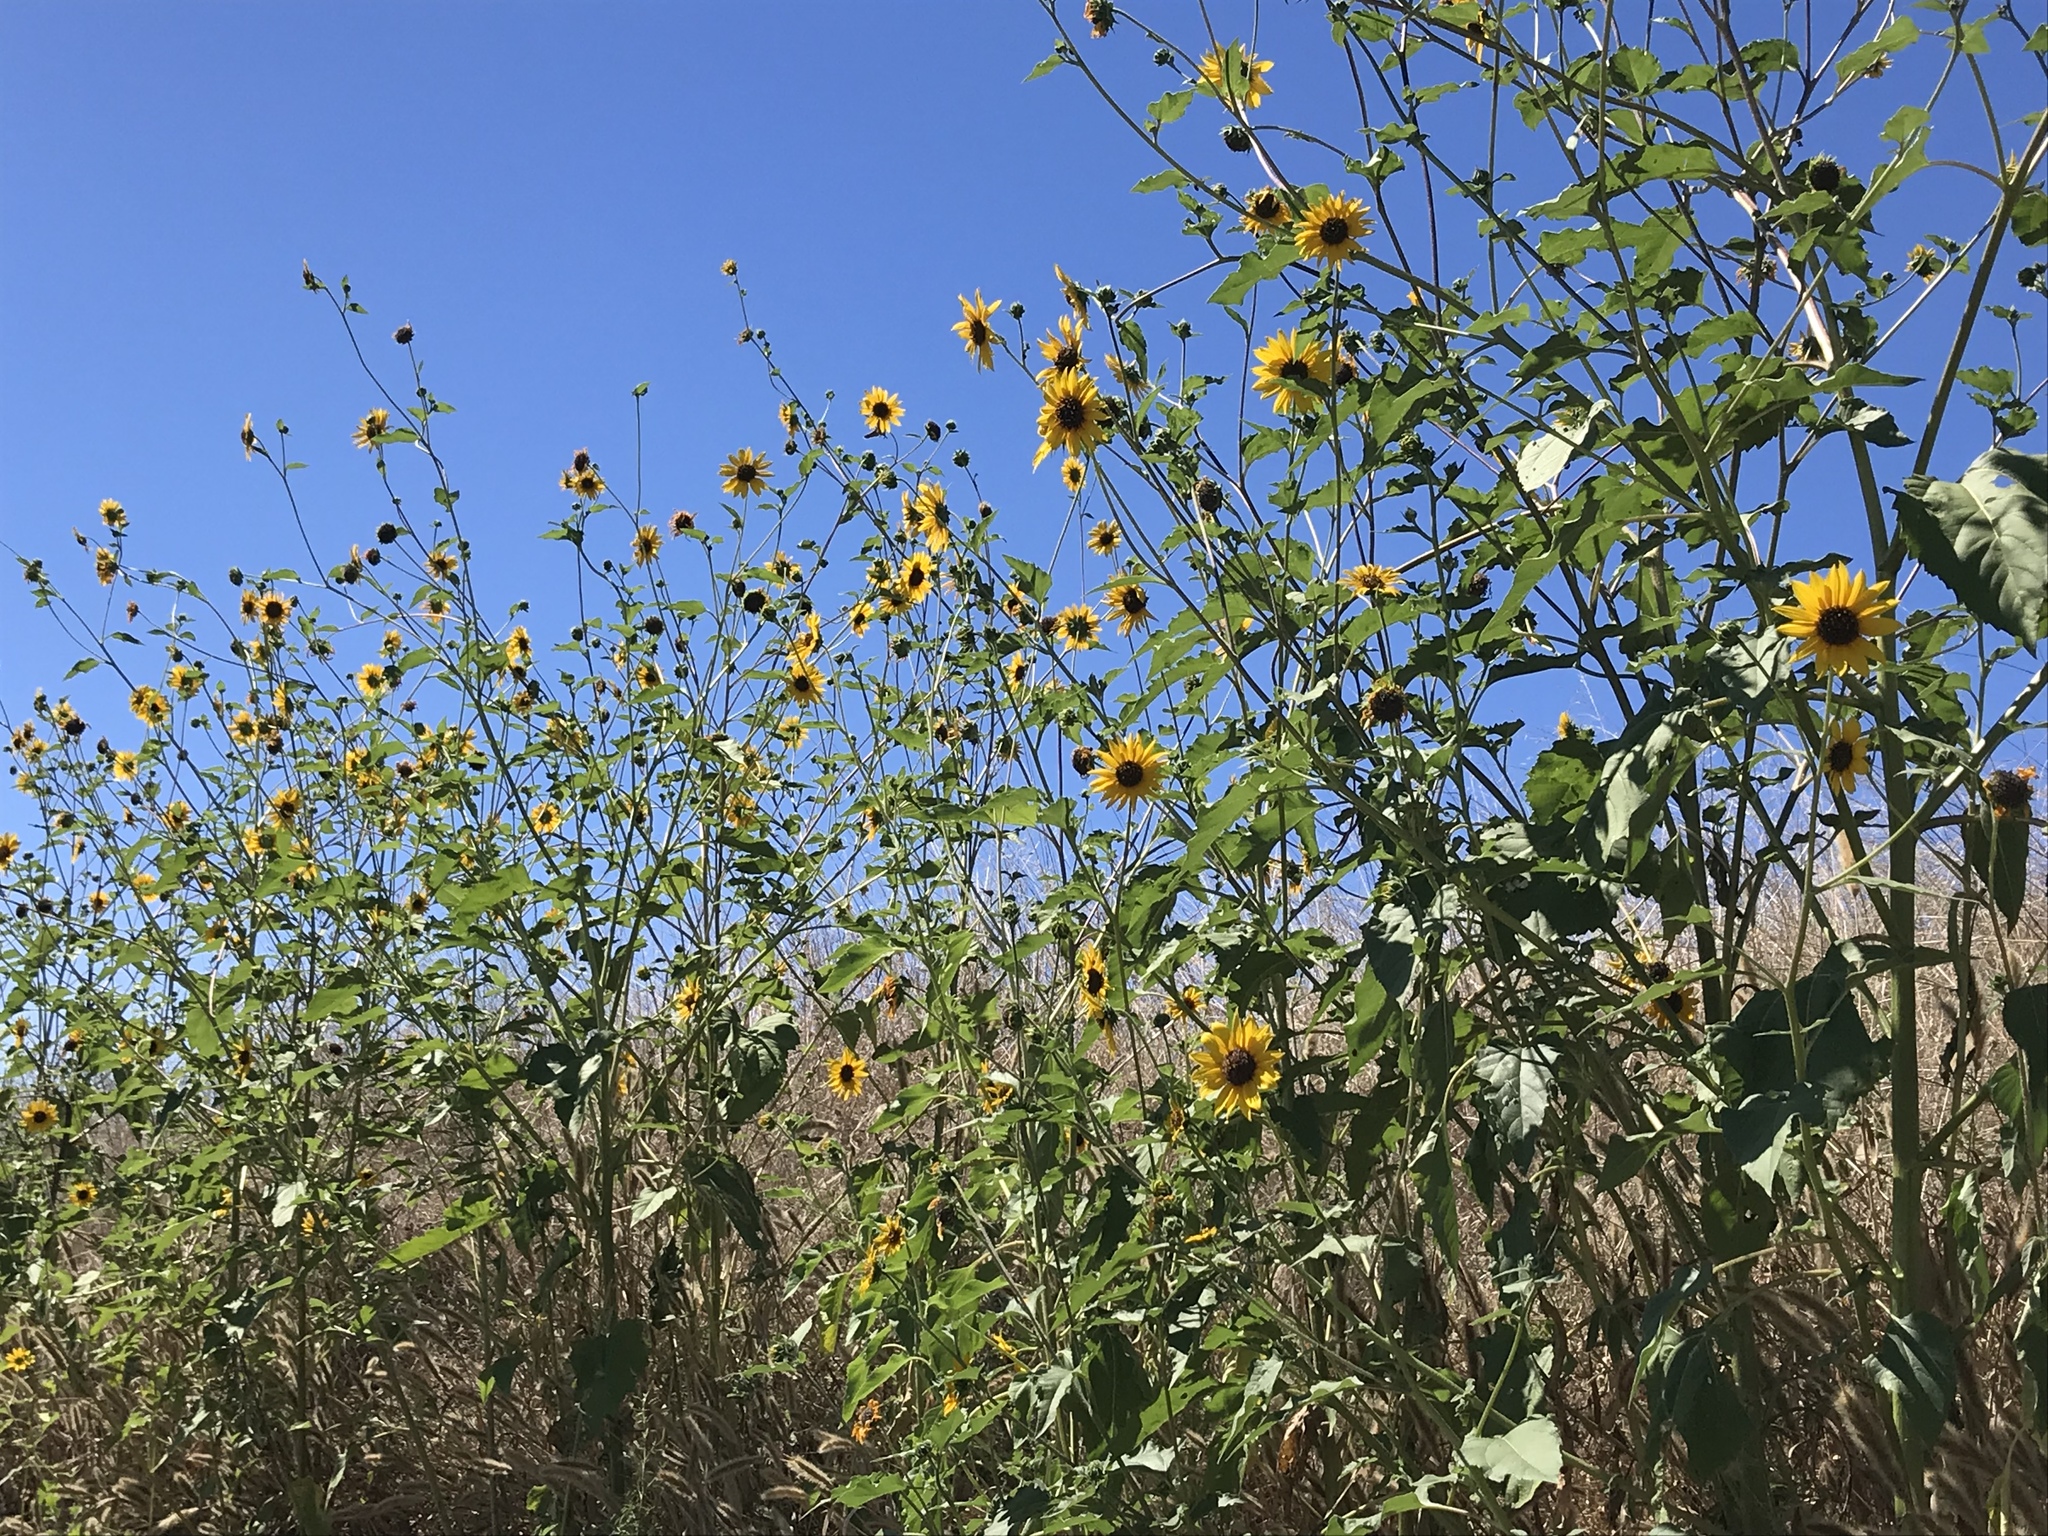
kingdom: Plantae
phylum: Tracheophyta
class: Magnoliopsida
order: Asterales
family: Asteraceae
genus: Helianthus
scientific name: Helianthus annuus
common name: Sunflower
